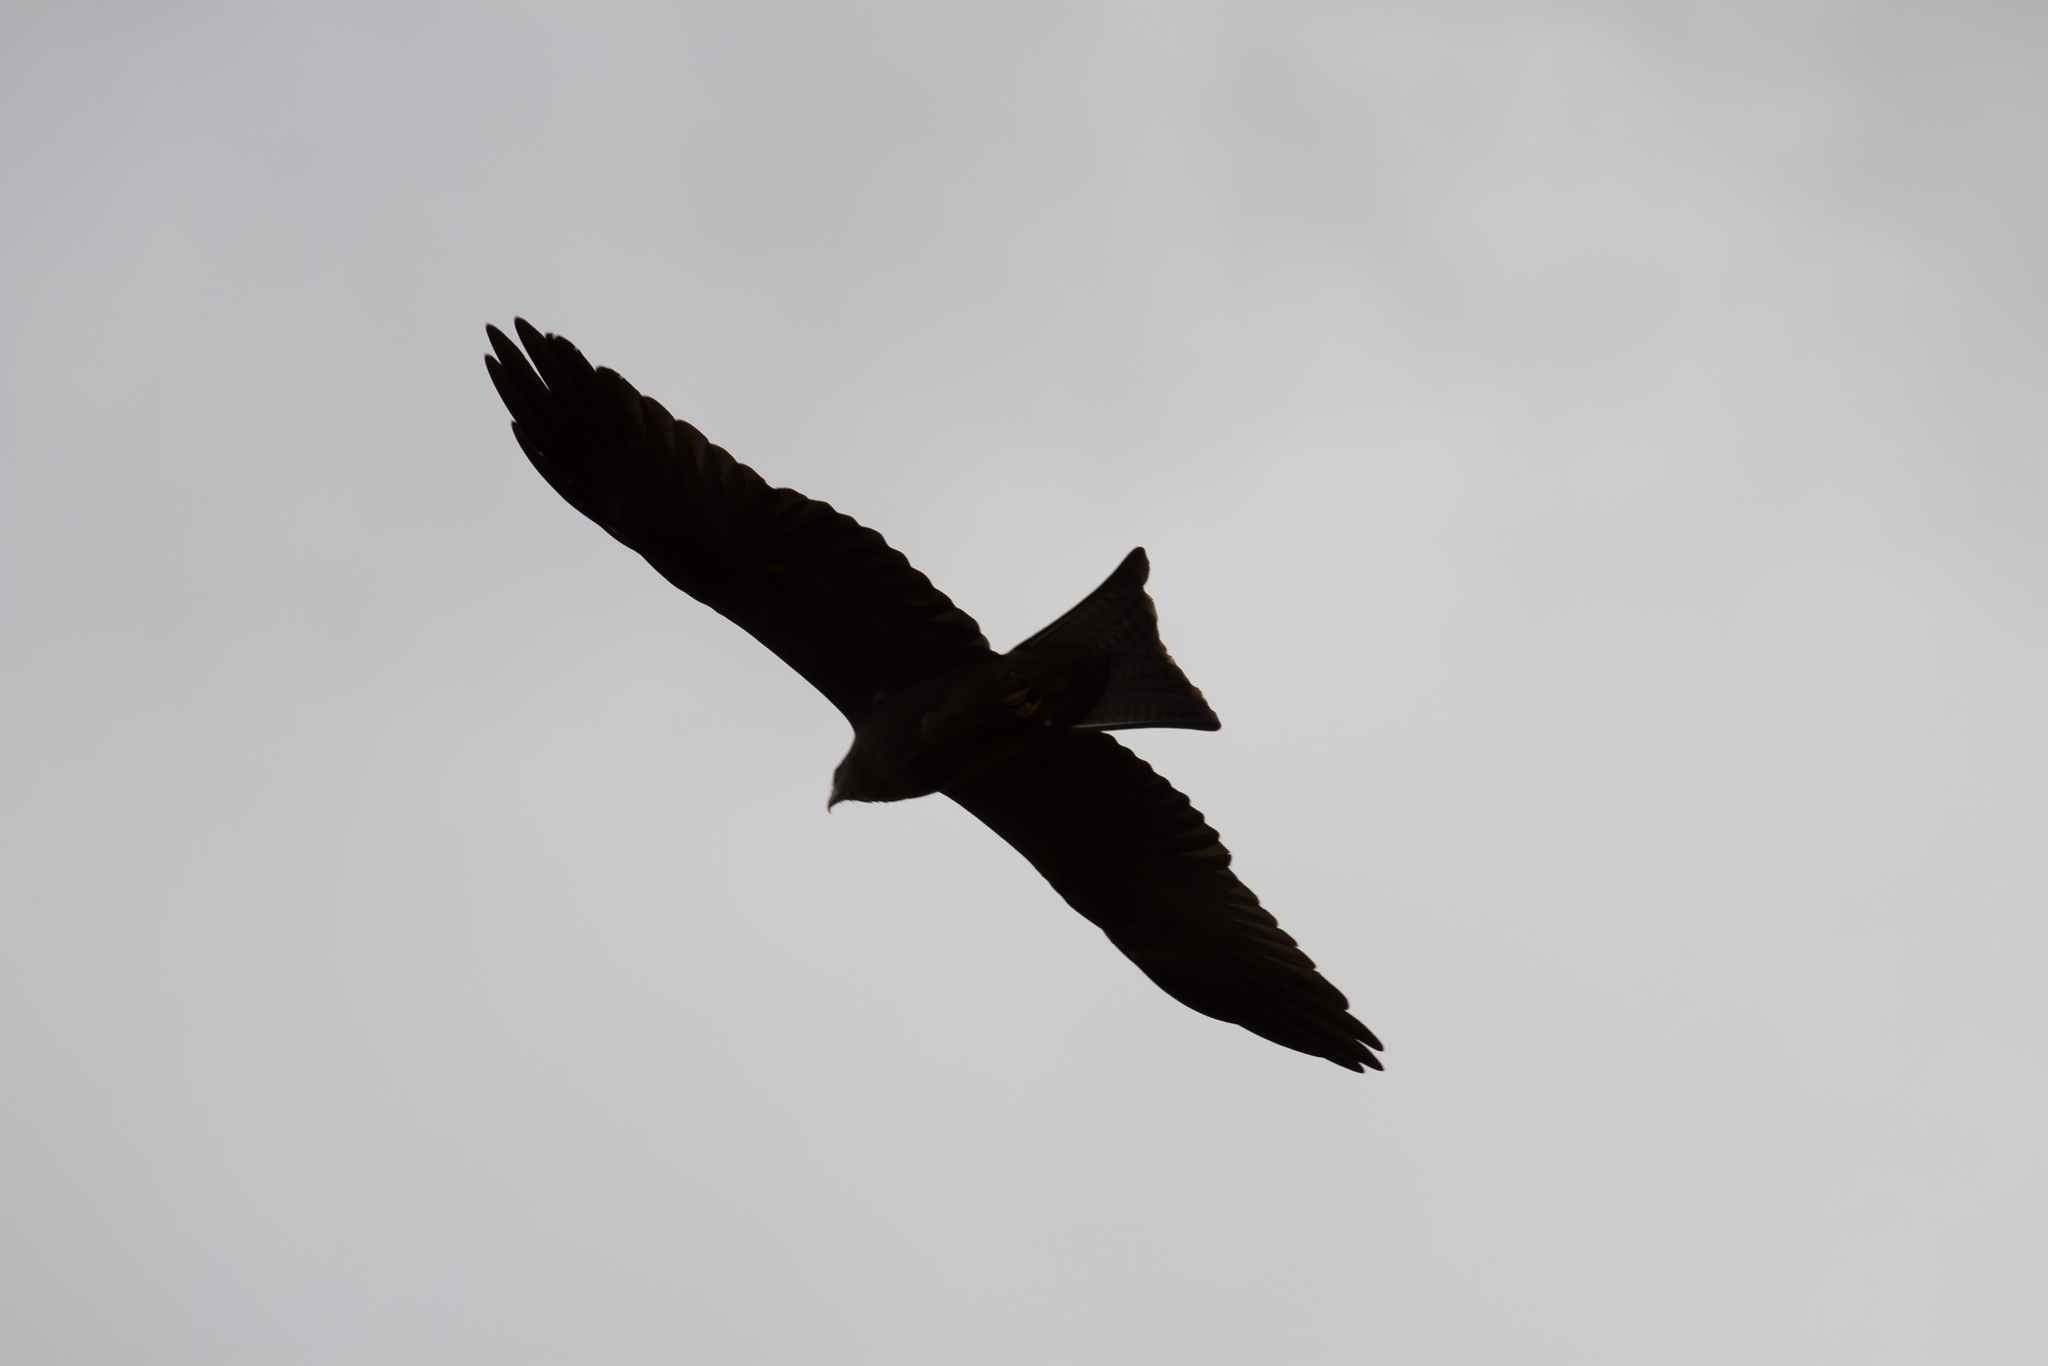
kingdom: Animalia
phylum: Chordata
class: Aves
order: Accipitriformes
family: Accipitridae
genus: Milvus
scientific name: Milvus migrans
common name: Black kite
